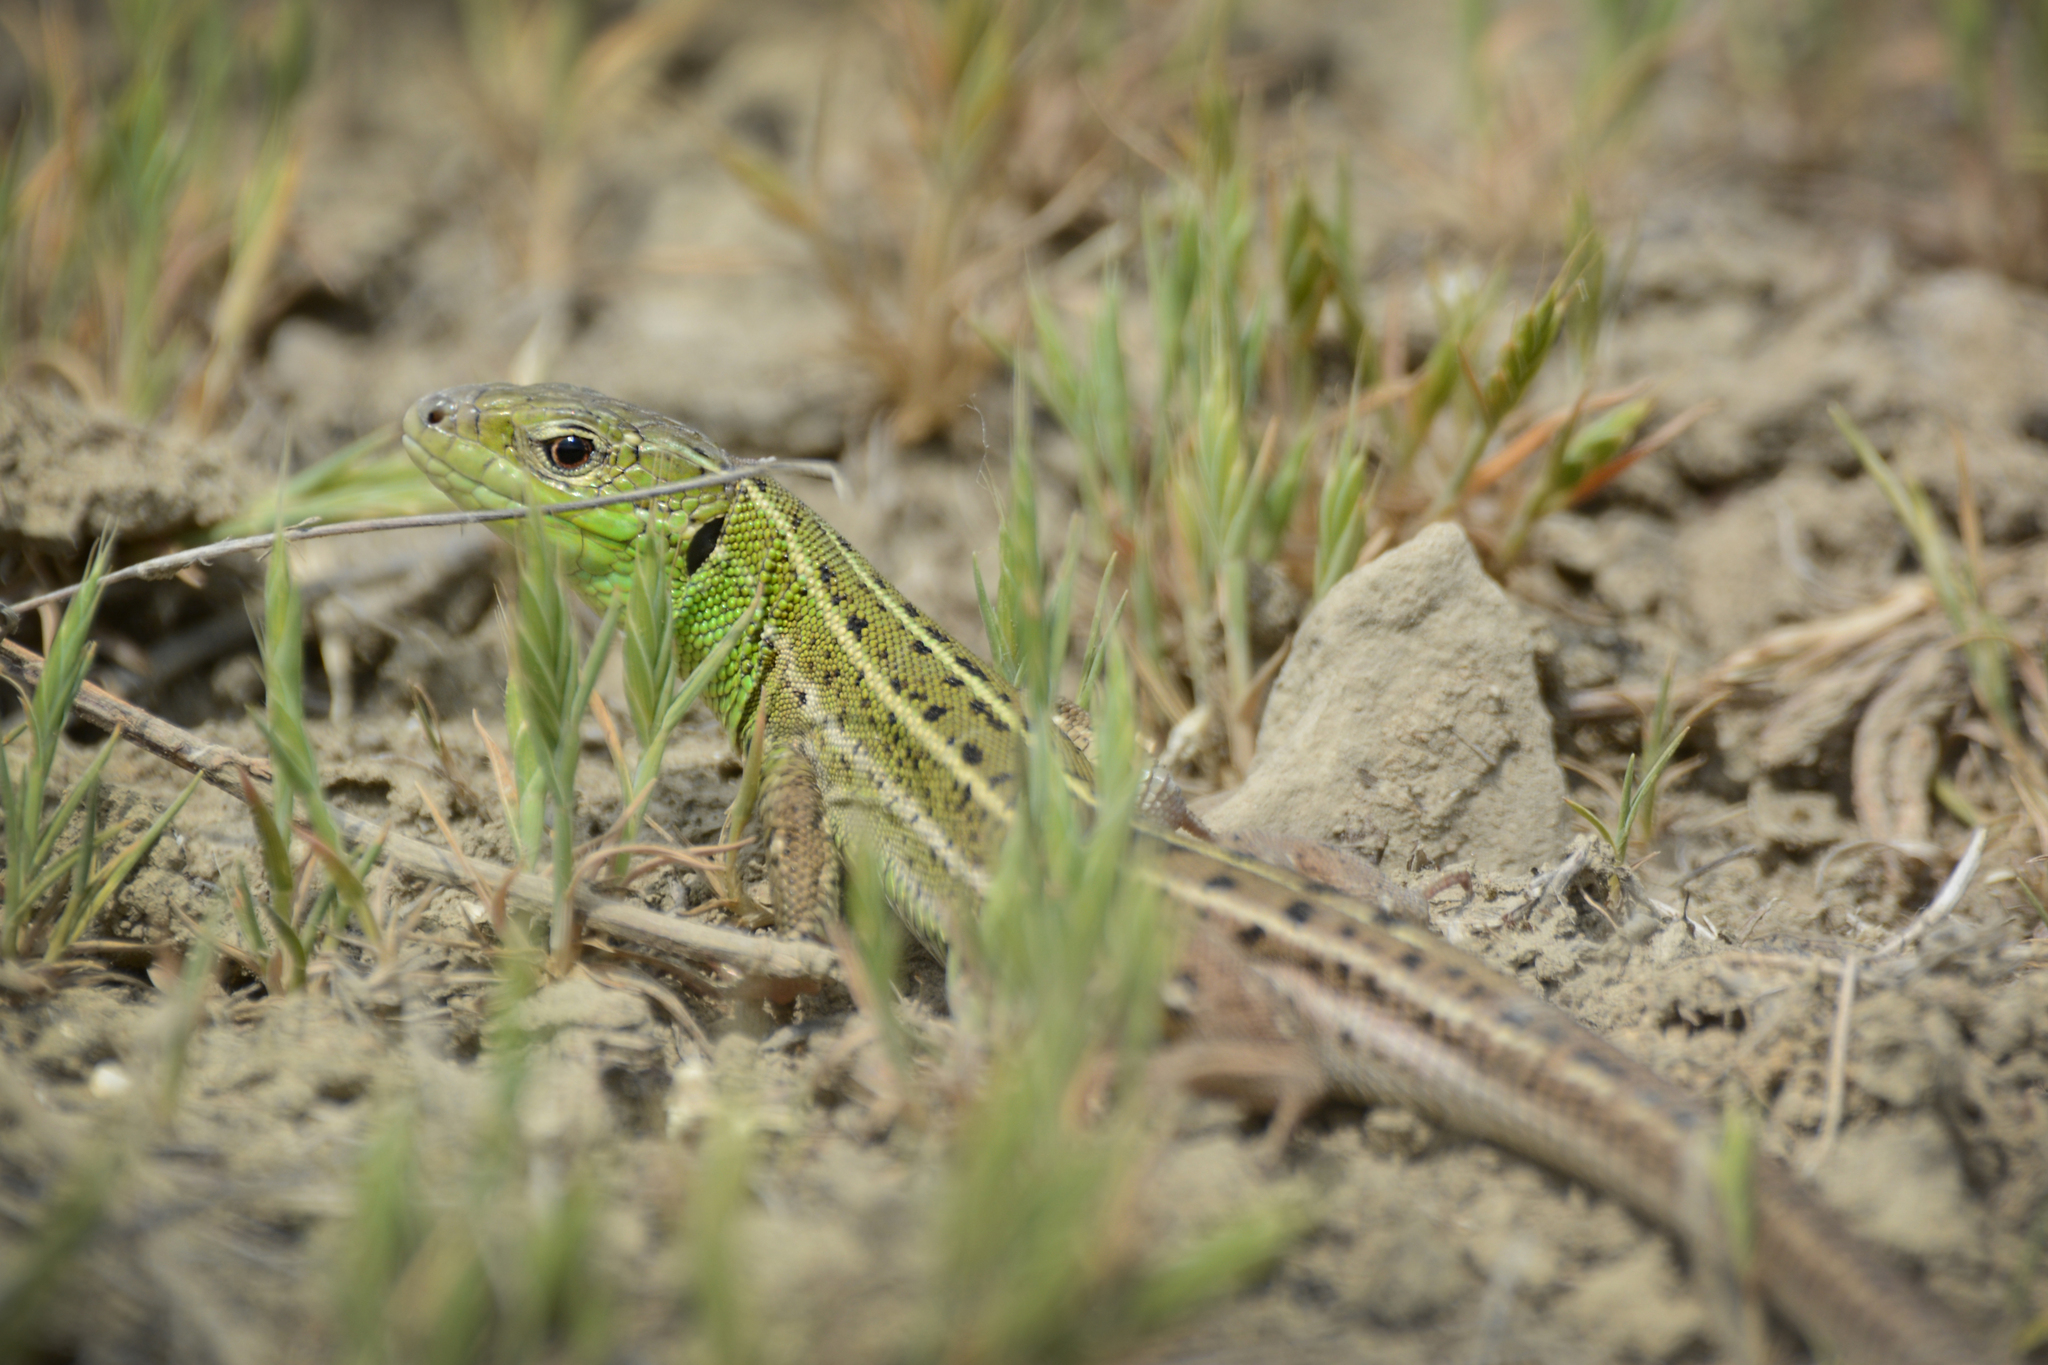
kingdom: Animalia
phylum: Chordata
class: Squamata
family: Lacertidae
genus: Lacerta
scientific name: Lacerta strigata
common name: Caspian green lizard
